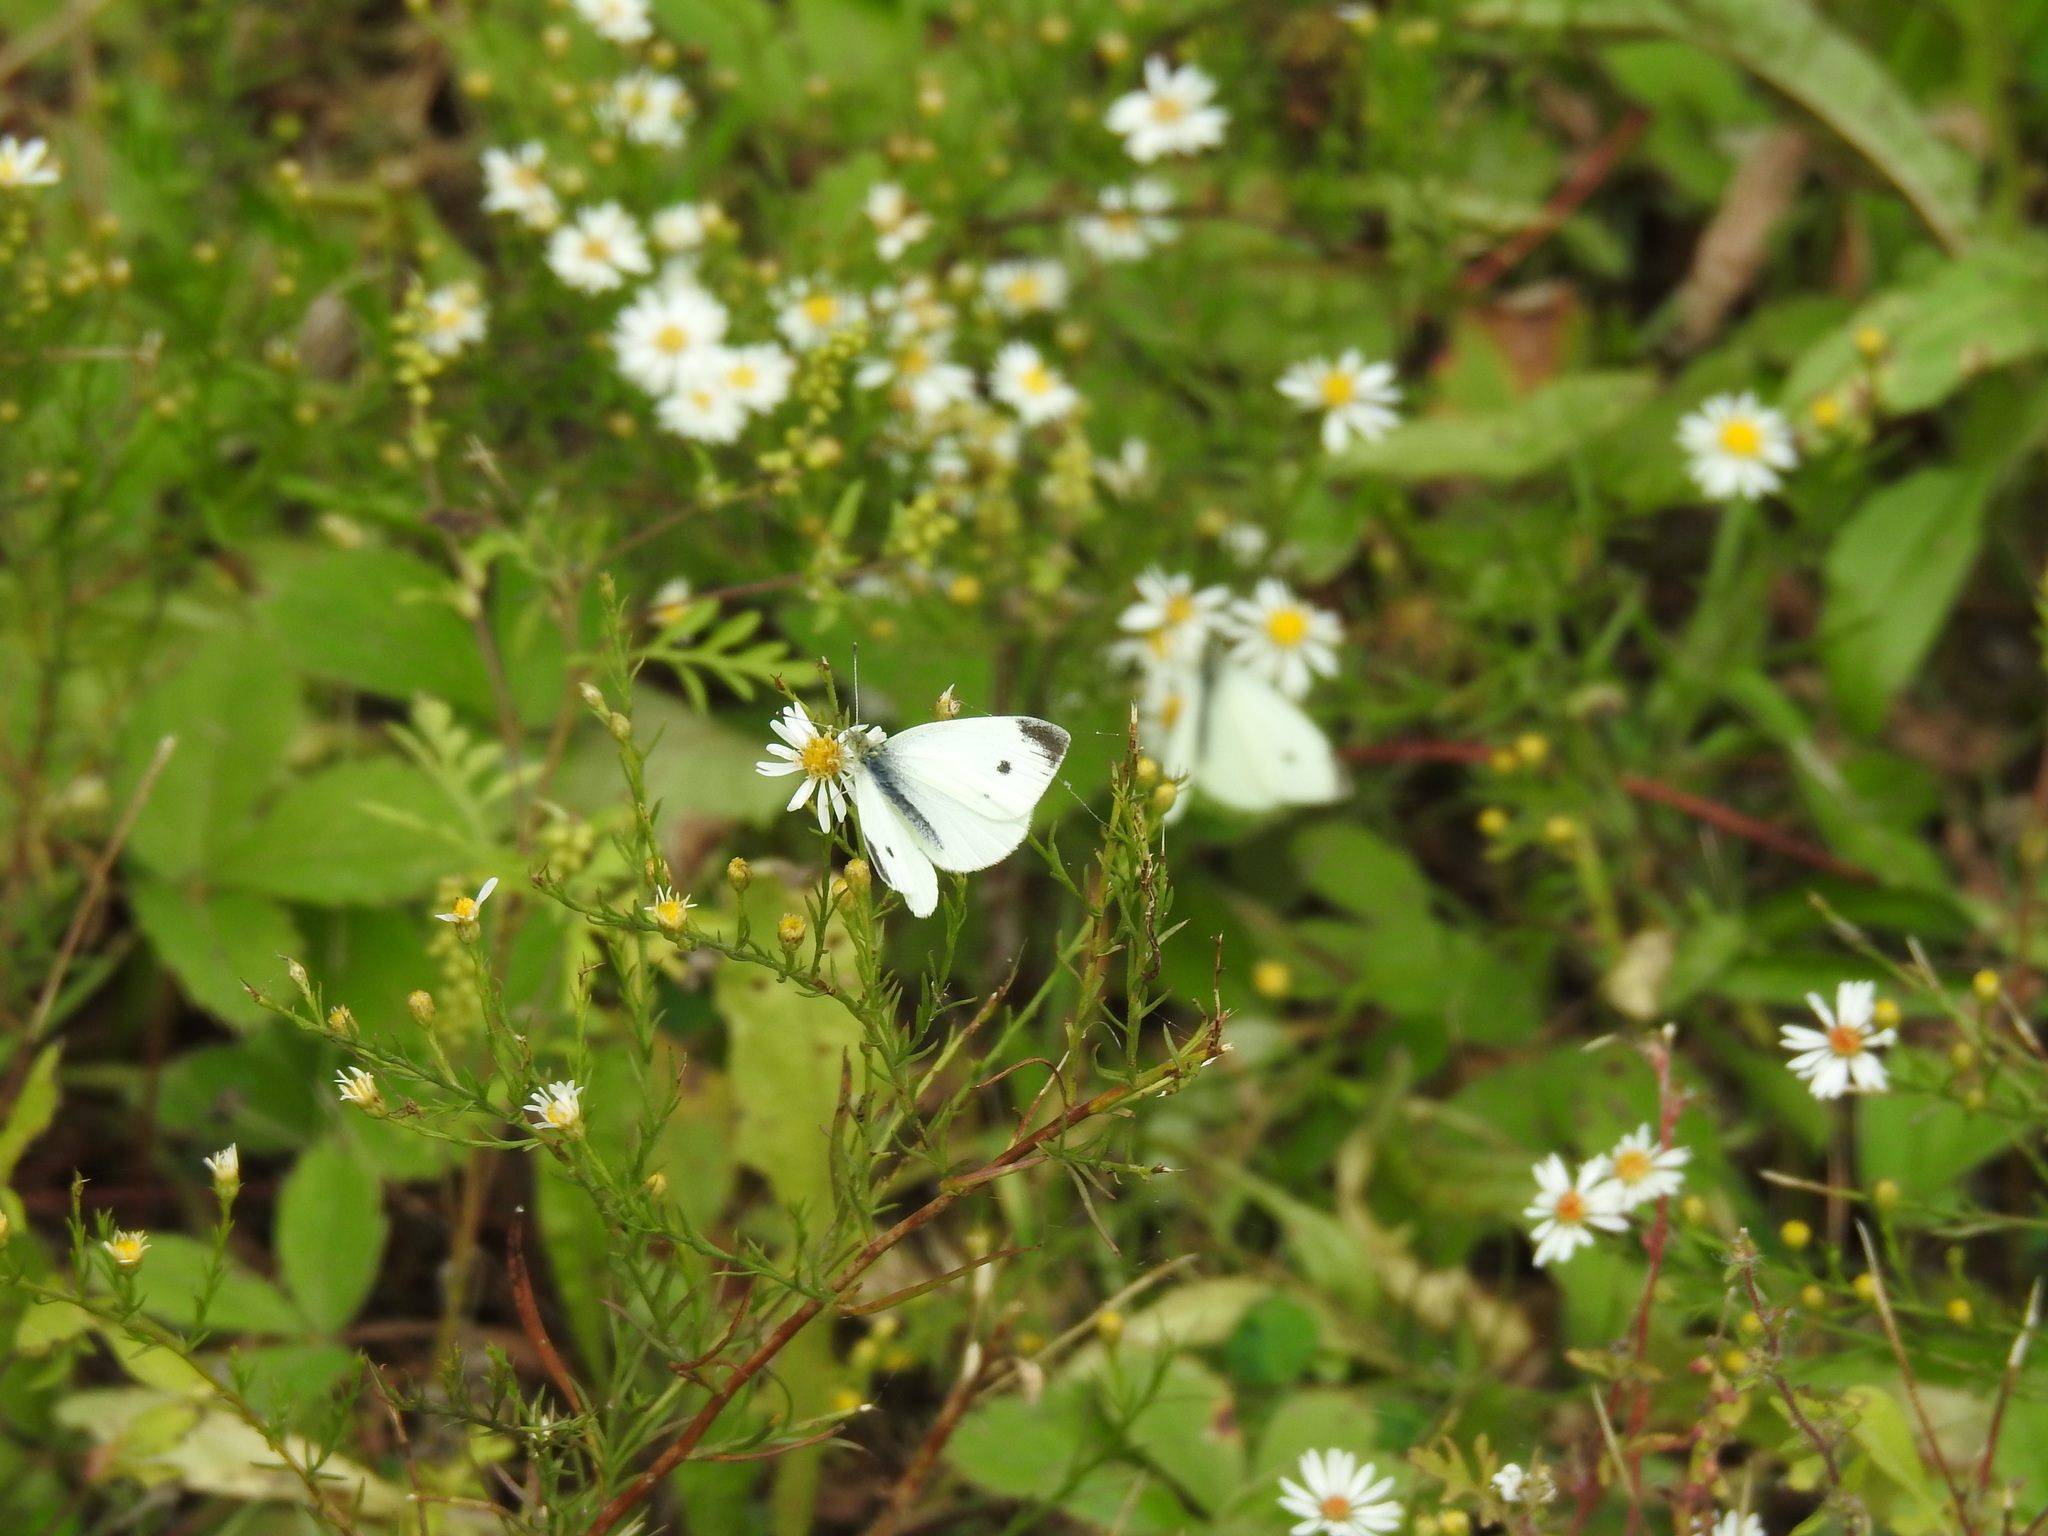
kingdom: Animalia
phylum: Arthropoda
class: Insecta
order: Lepidoptera
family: Pieridae
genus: Pieris
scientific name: Pieris rapae
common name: Small white
